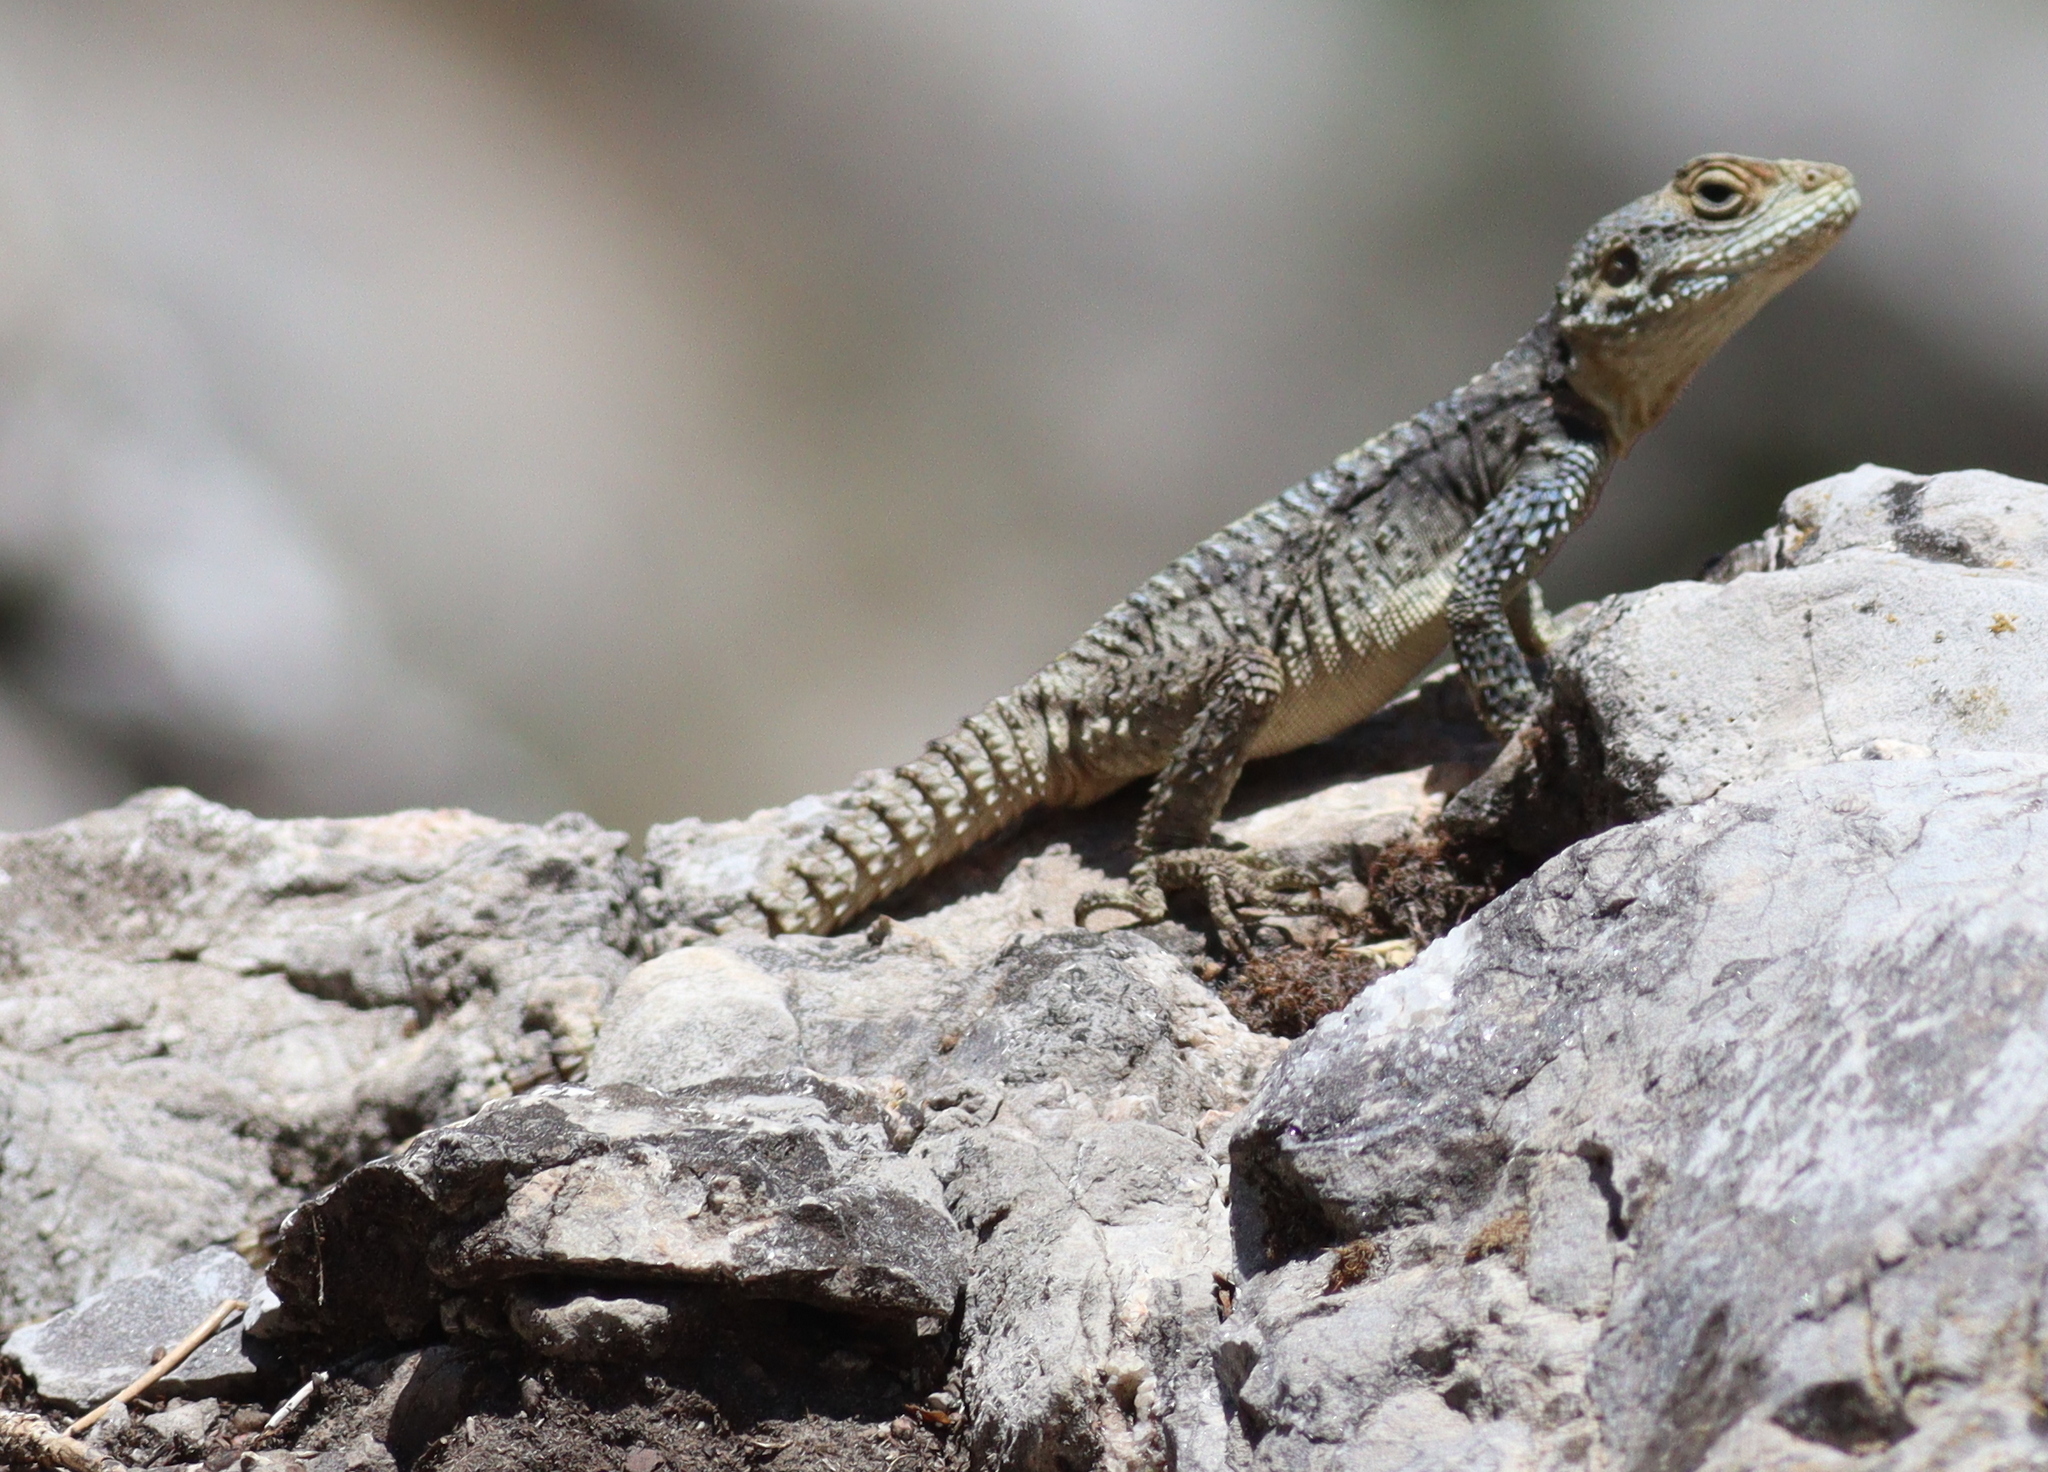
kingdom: Animalia
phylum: Chordata
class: Squamata
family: Agamidae
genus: Stellagama
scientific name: Stellagama stellio
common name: Starred agama
